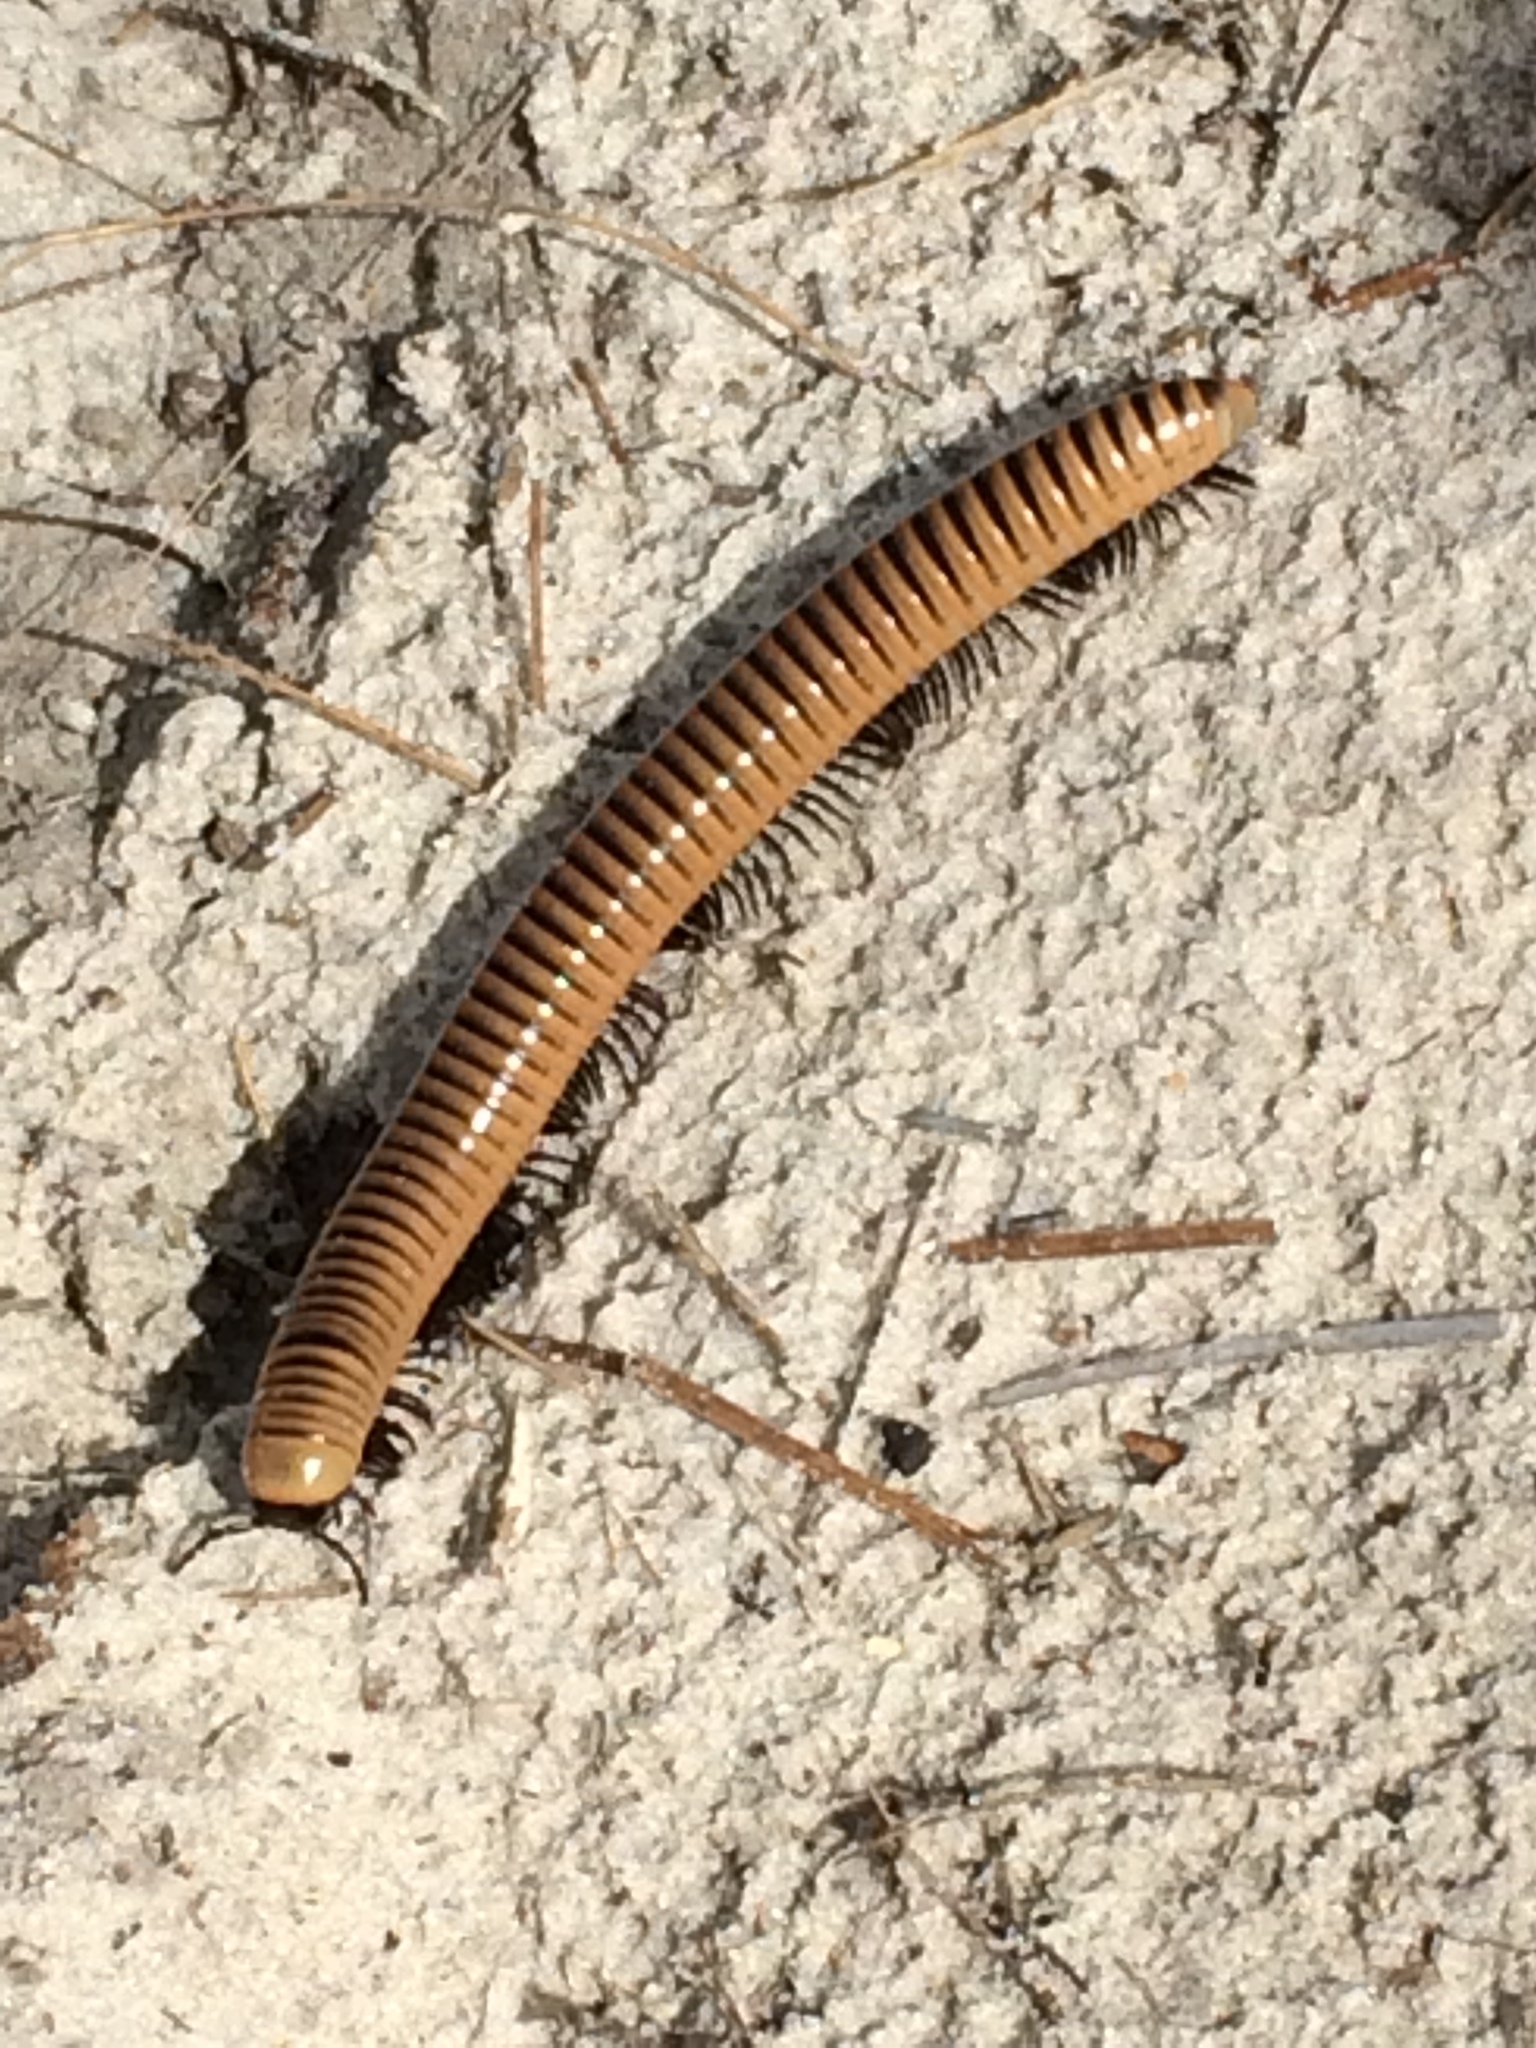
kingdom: Animalia
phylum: Arthropoda
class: Diplopoda
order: Spirobolida
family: Spirobolidae
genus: Chicobolus
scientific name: Chicobolus spinigerus
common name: Florida ivory millipede
